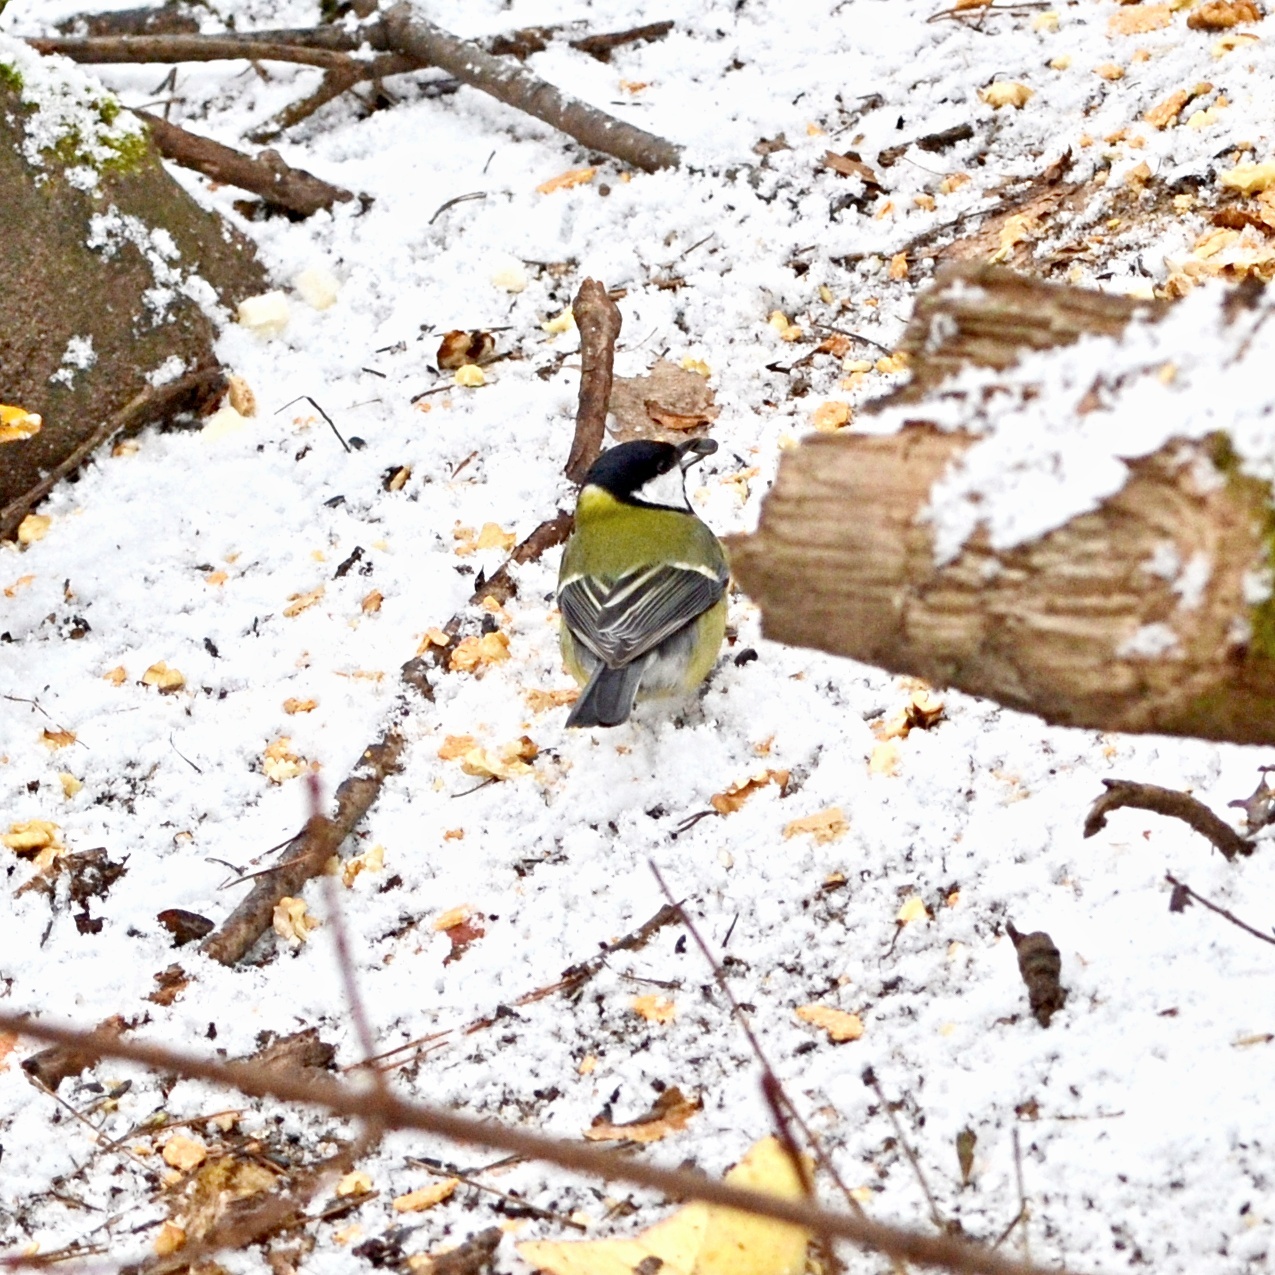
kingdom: Animalia
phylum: Chordata
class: Aves
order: Passeriformes
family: Paridae
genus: Parus
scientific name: Parus major
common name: Great tit
